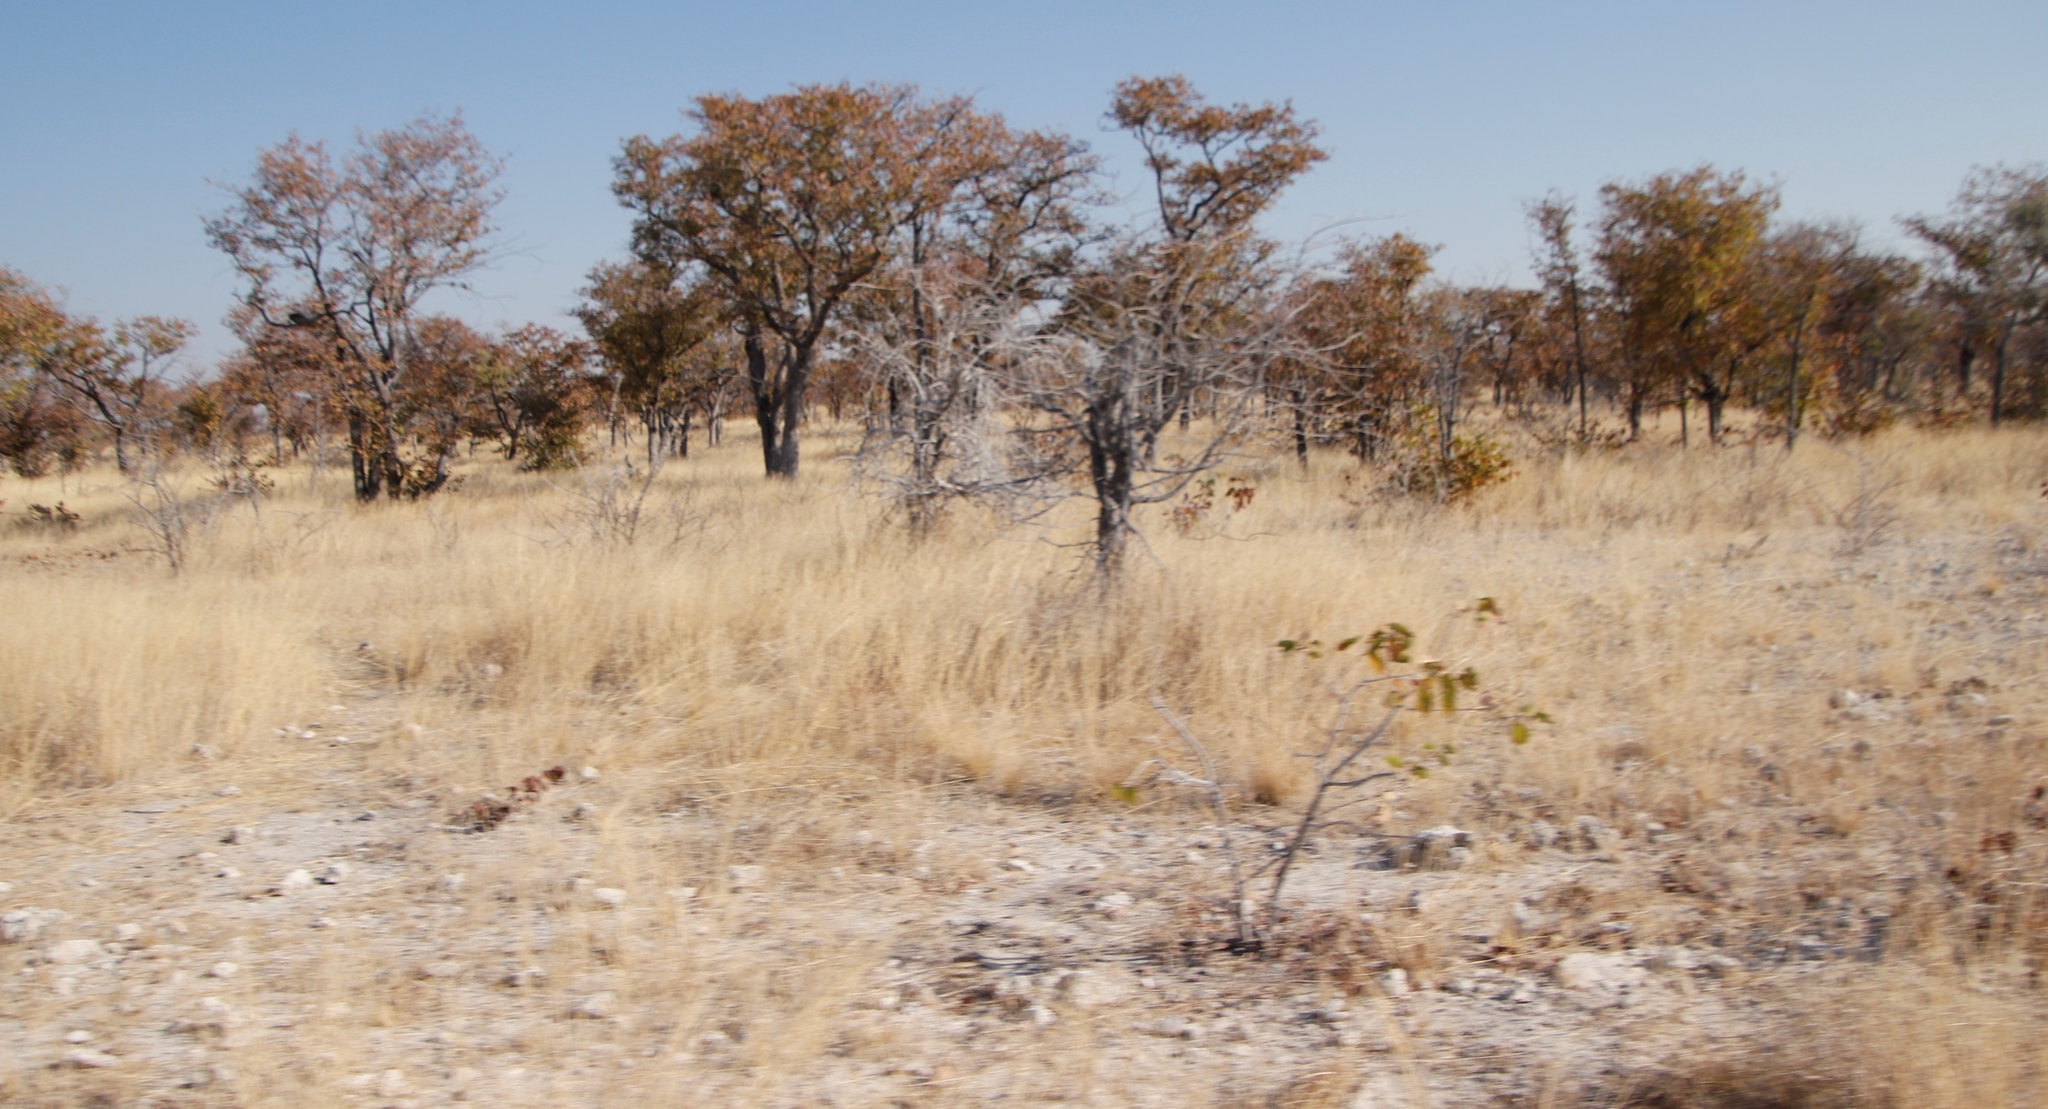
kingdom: Plantae
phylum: Tracheophyta
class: Magnoliopsida
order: Fabales
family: Fabaceae
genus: Colophospermum
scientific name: Colophospermum mopane
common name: Mopane
